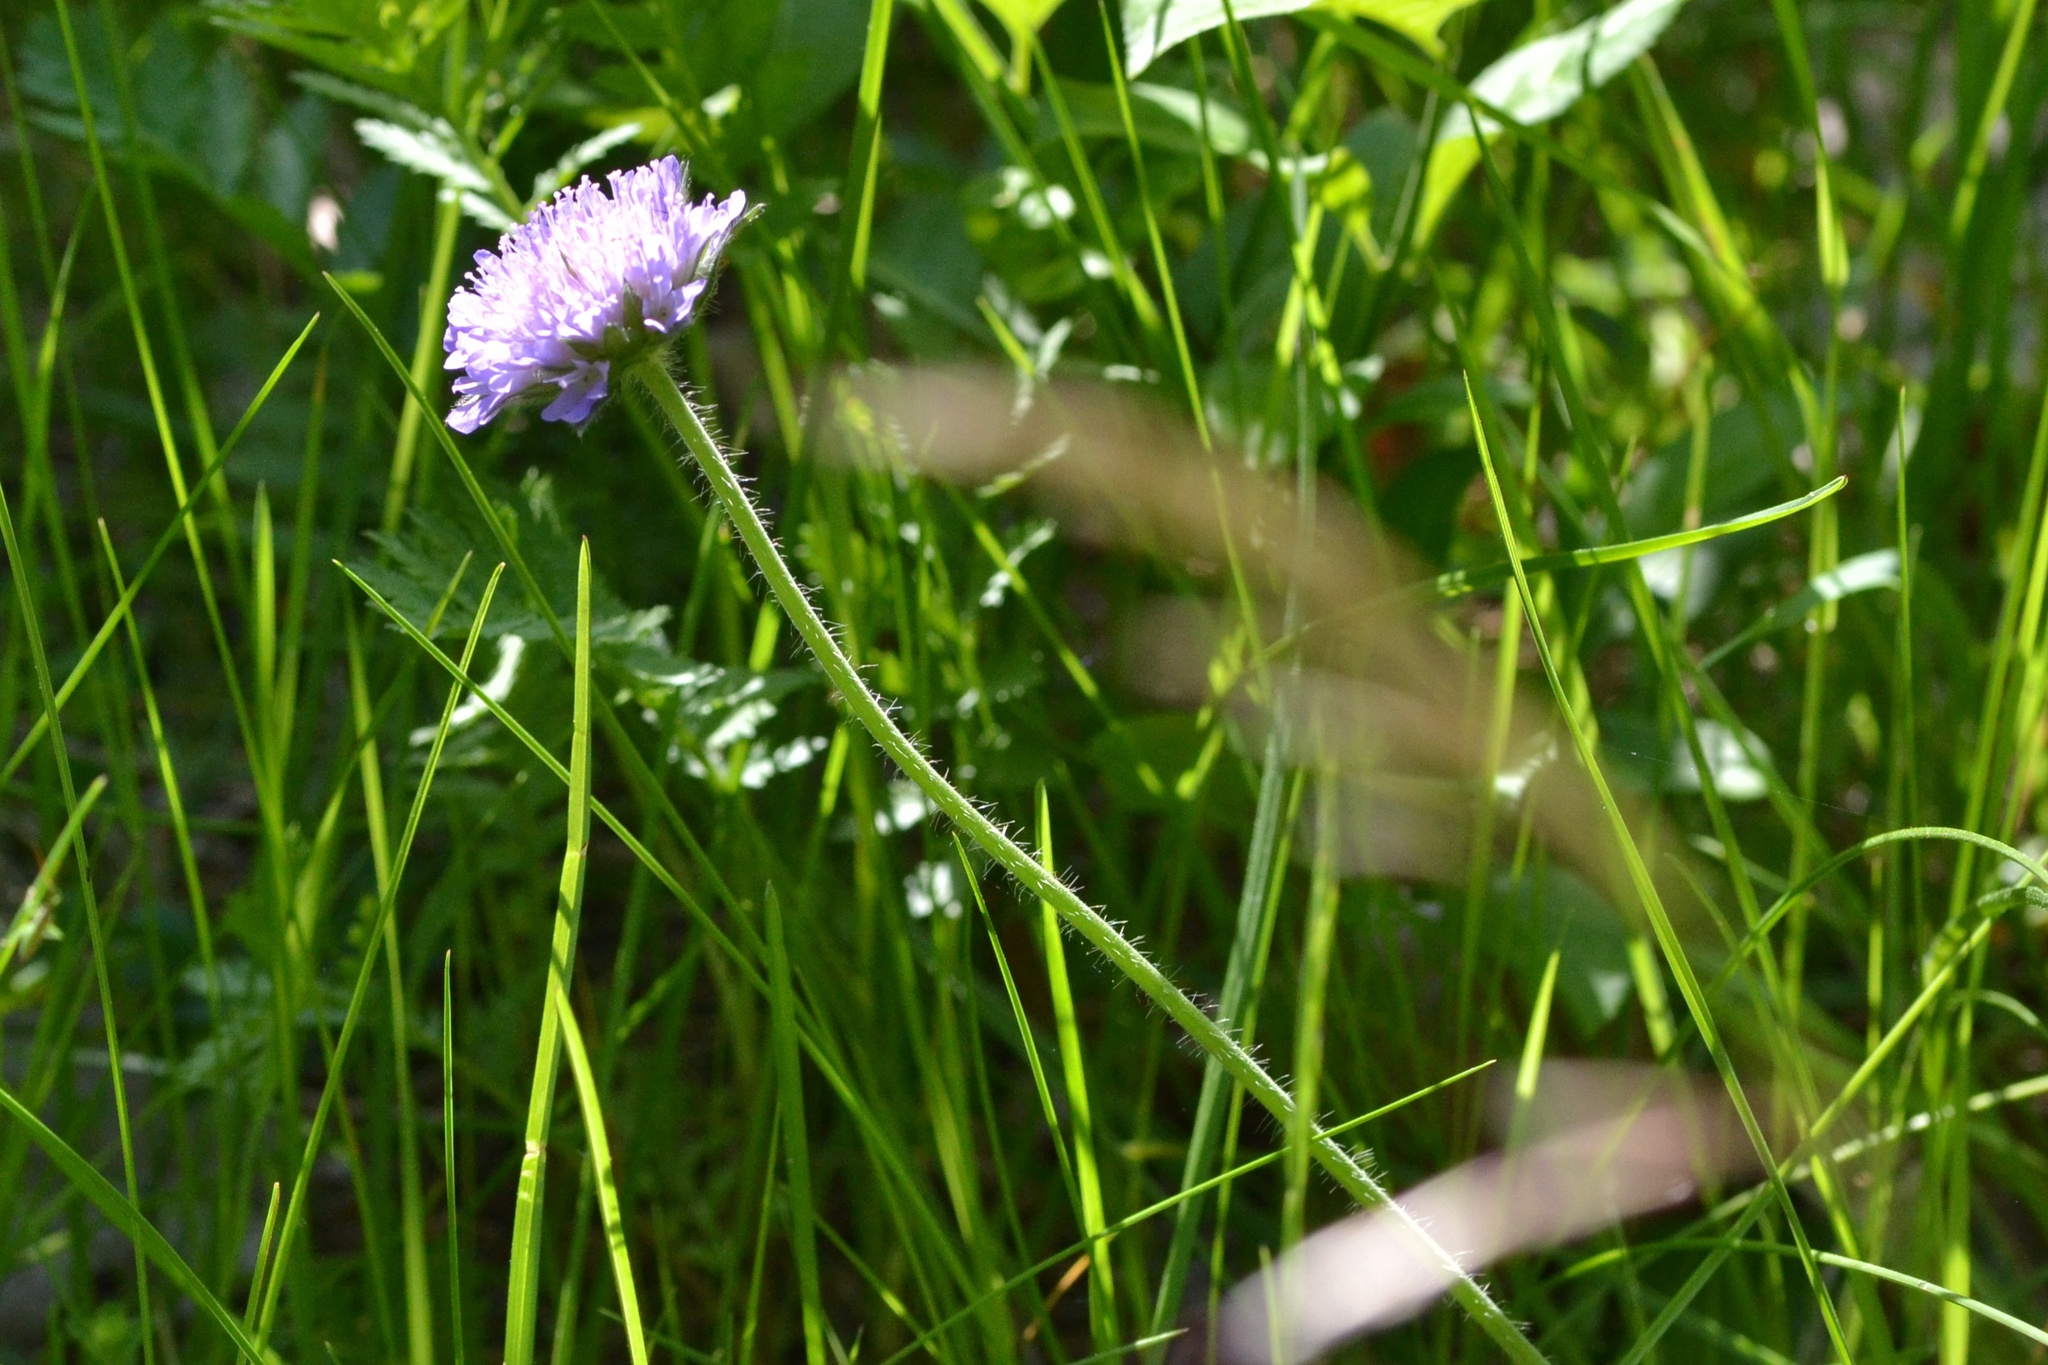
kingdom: Plantae
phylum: Tracheophyta
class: Magnoliopsida
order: Dipsacales
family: Caprifoliaceae
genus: Knautia
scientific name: Knautia arvensis
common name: Field scabiosa
